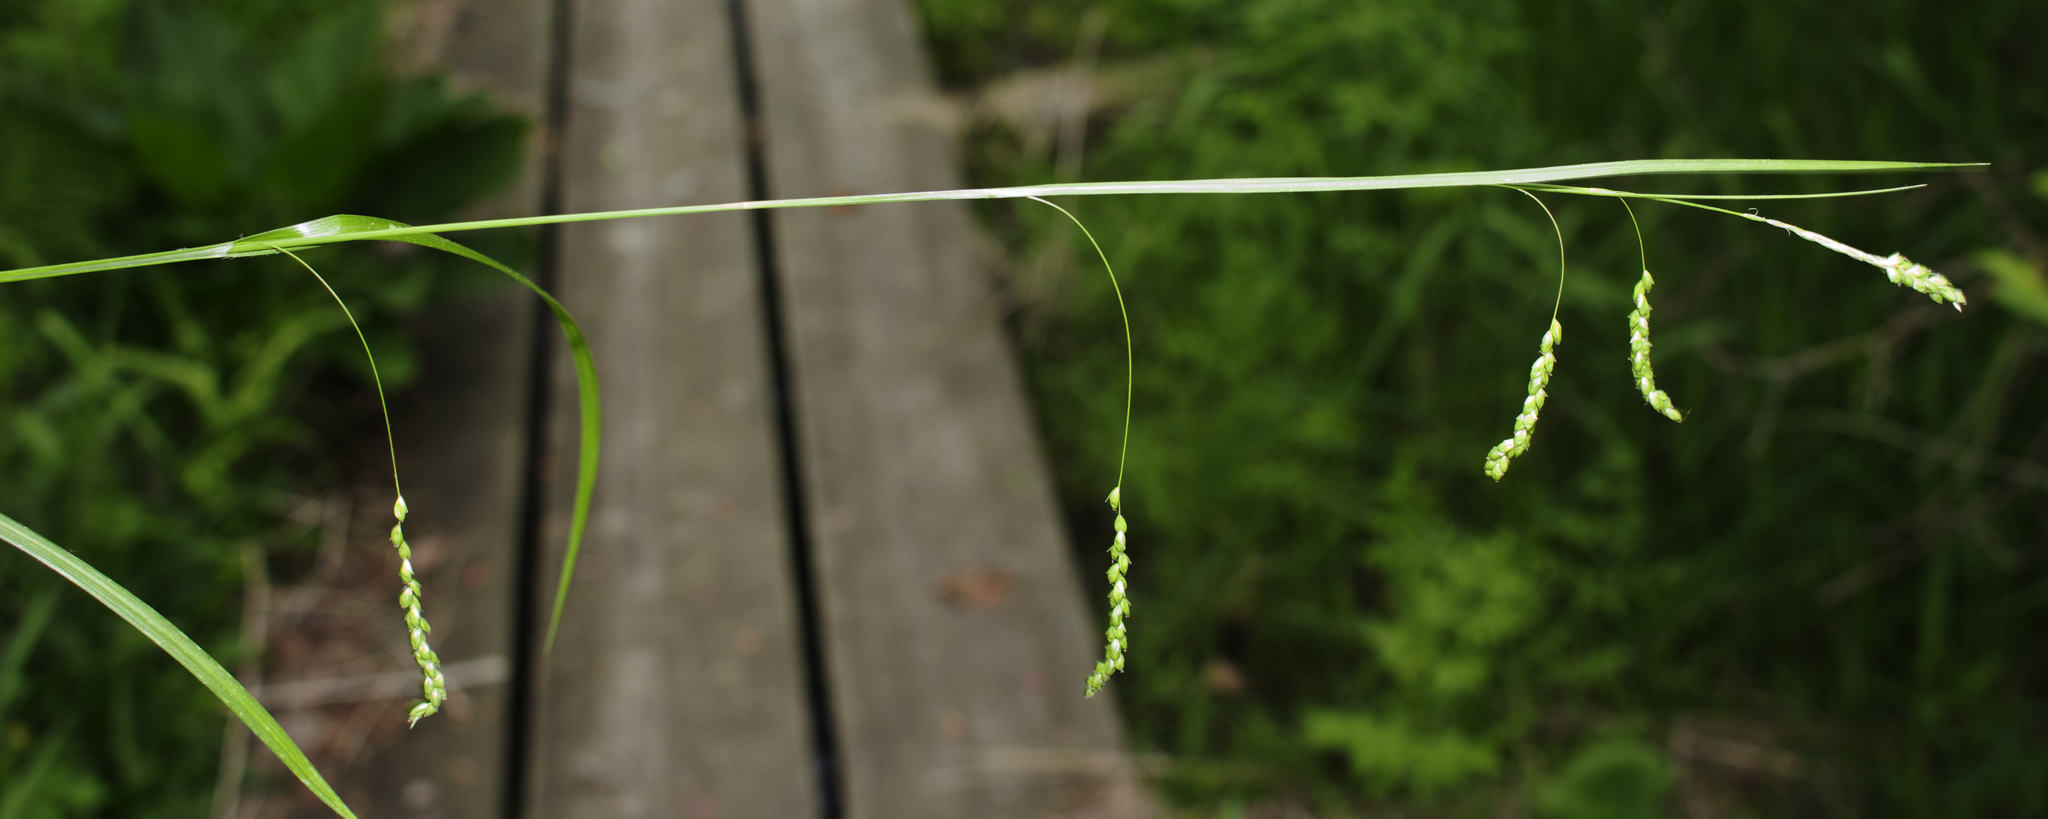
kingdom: Plantae
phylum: Tracheophyta
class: Liliopsida
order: Poales
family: Cyperaceae
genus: Carex
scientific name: Carex gracillima
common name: Graceful sedge
